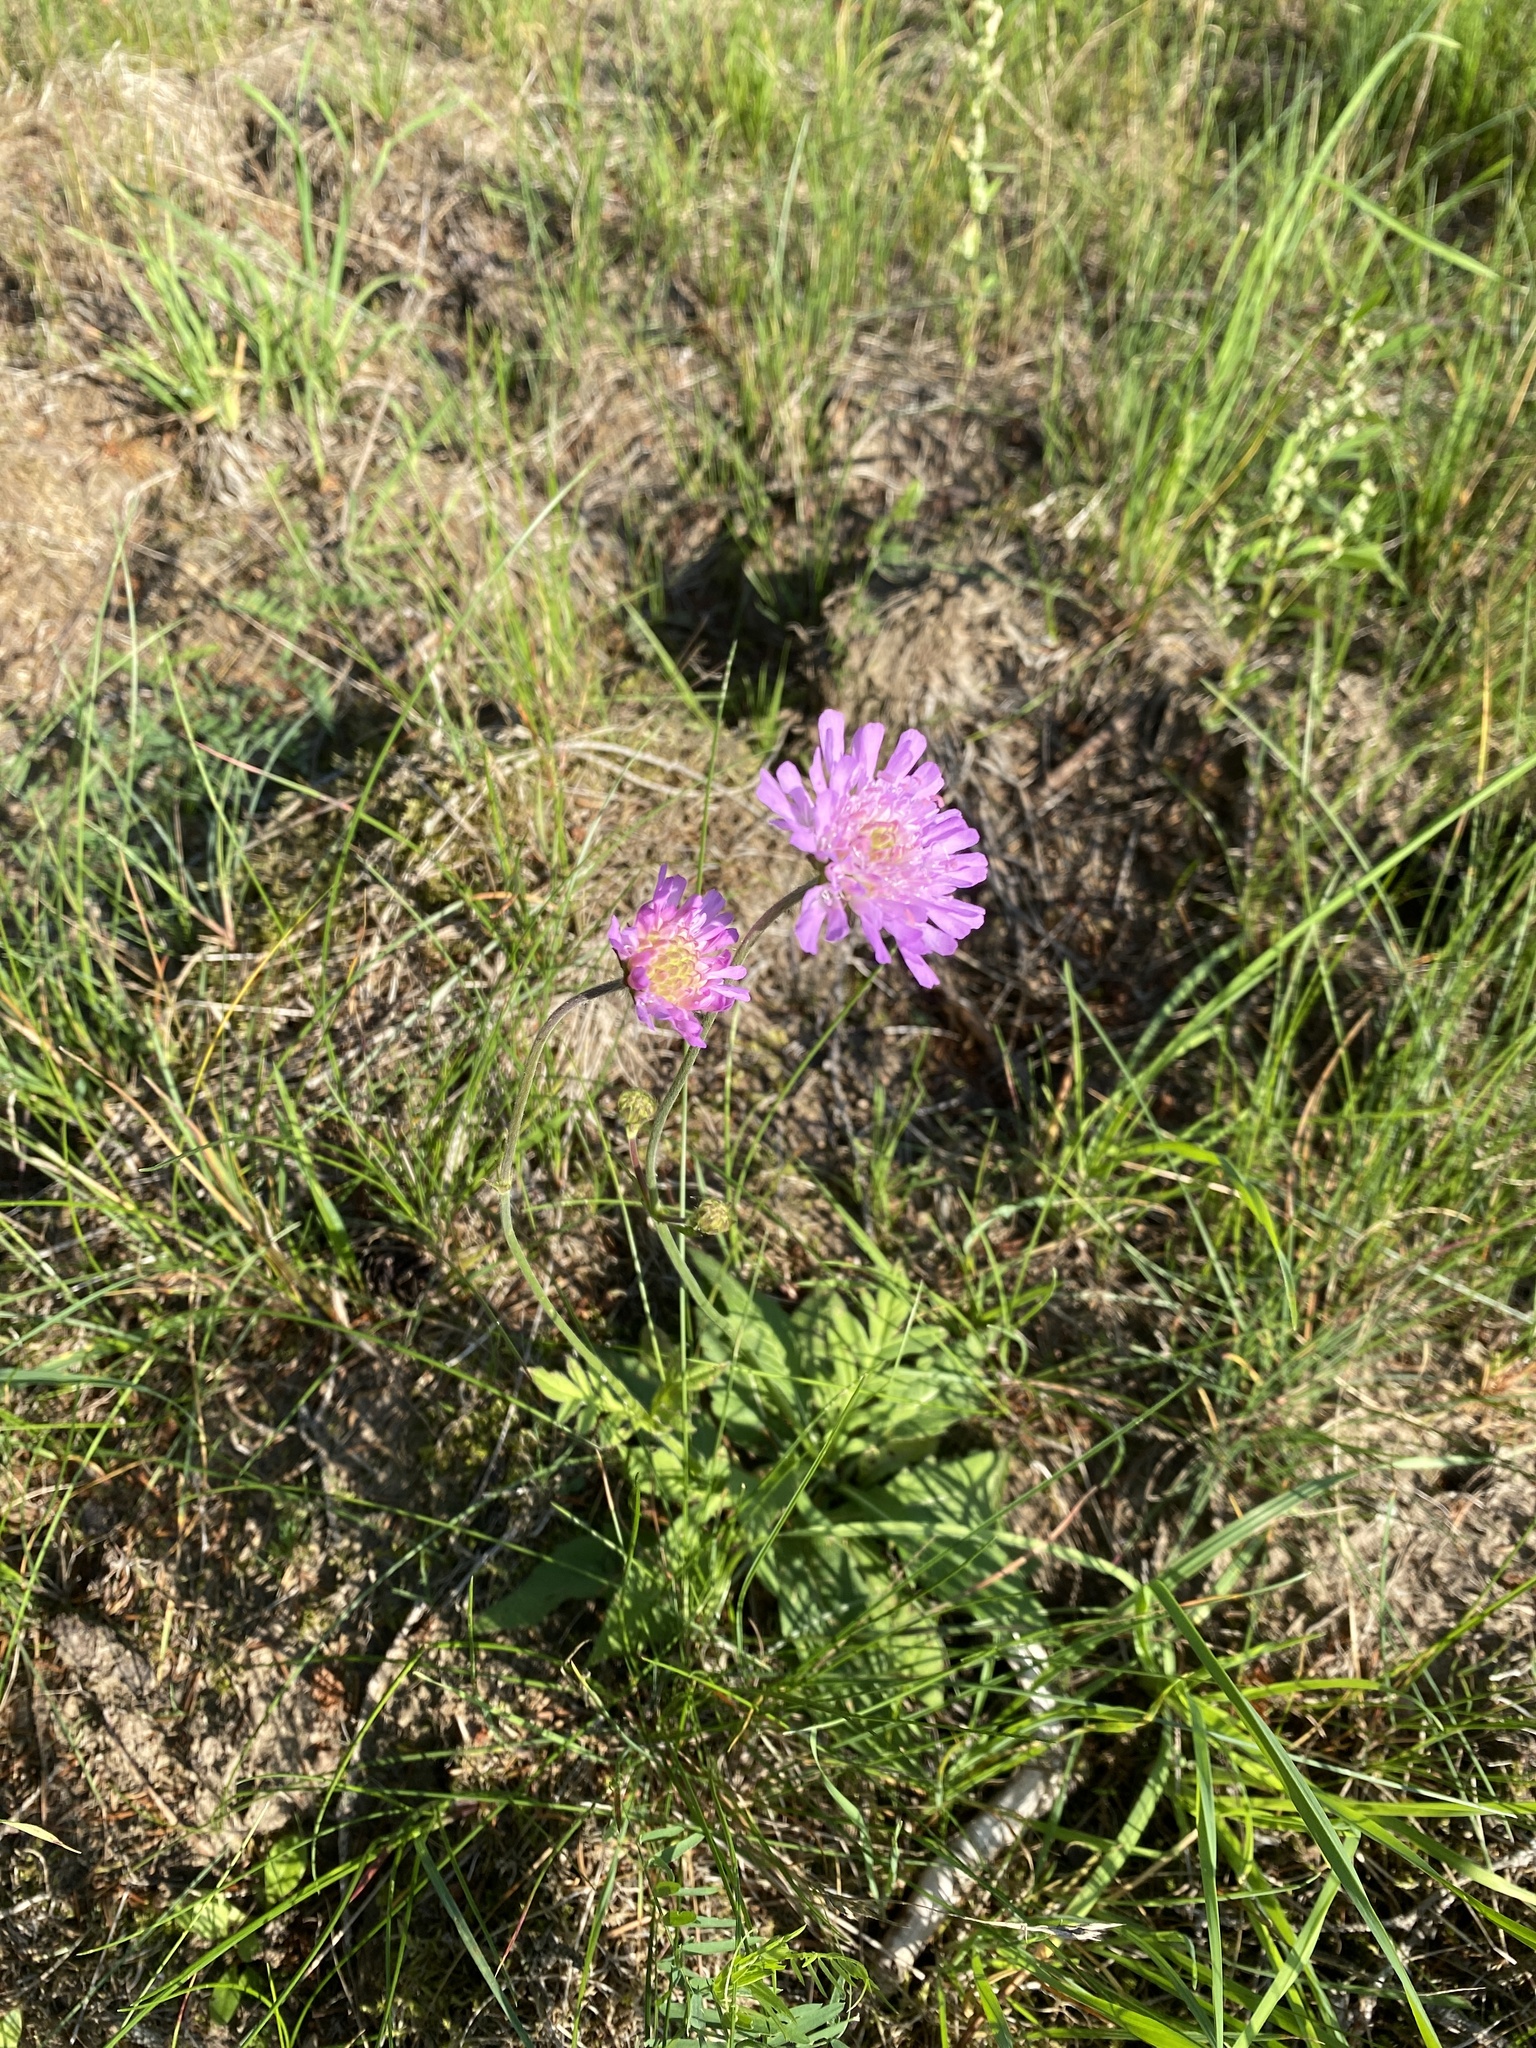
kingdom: Plantae
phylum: Tracheophyta
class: Magnoliopsida
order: Dipsacales
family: Caprifoliaceae
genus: Knautia
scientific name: Knautia arvensis
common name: Field scabiosa
